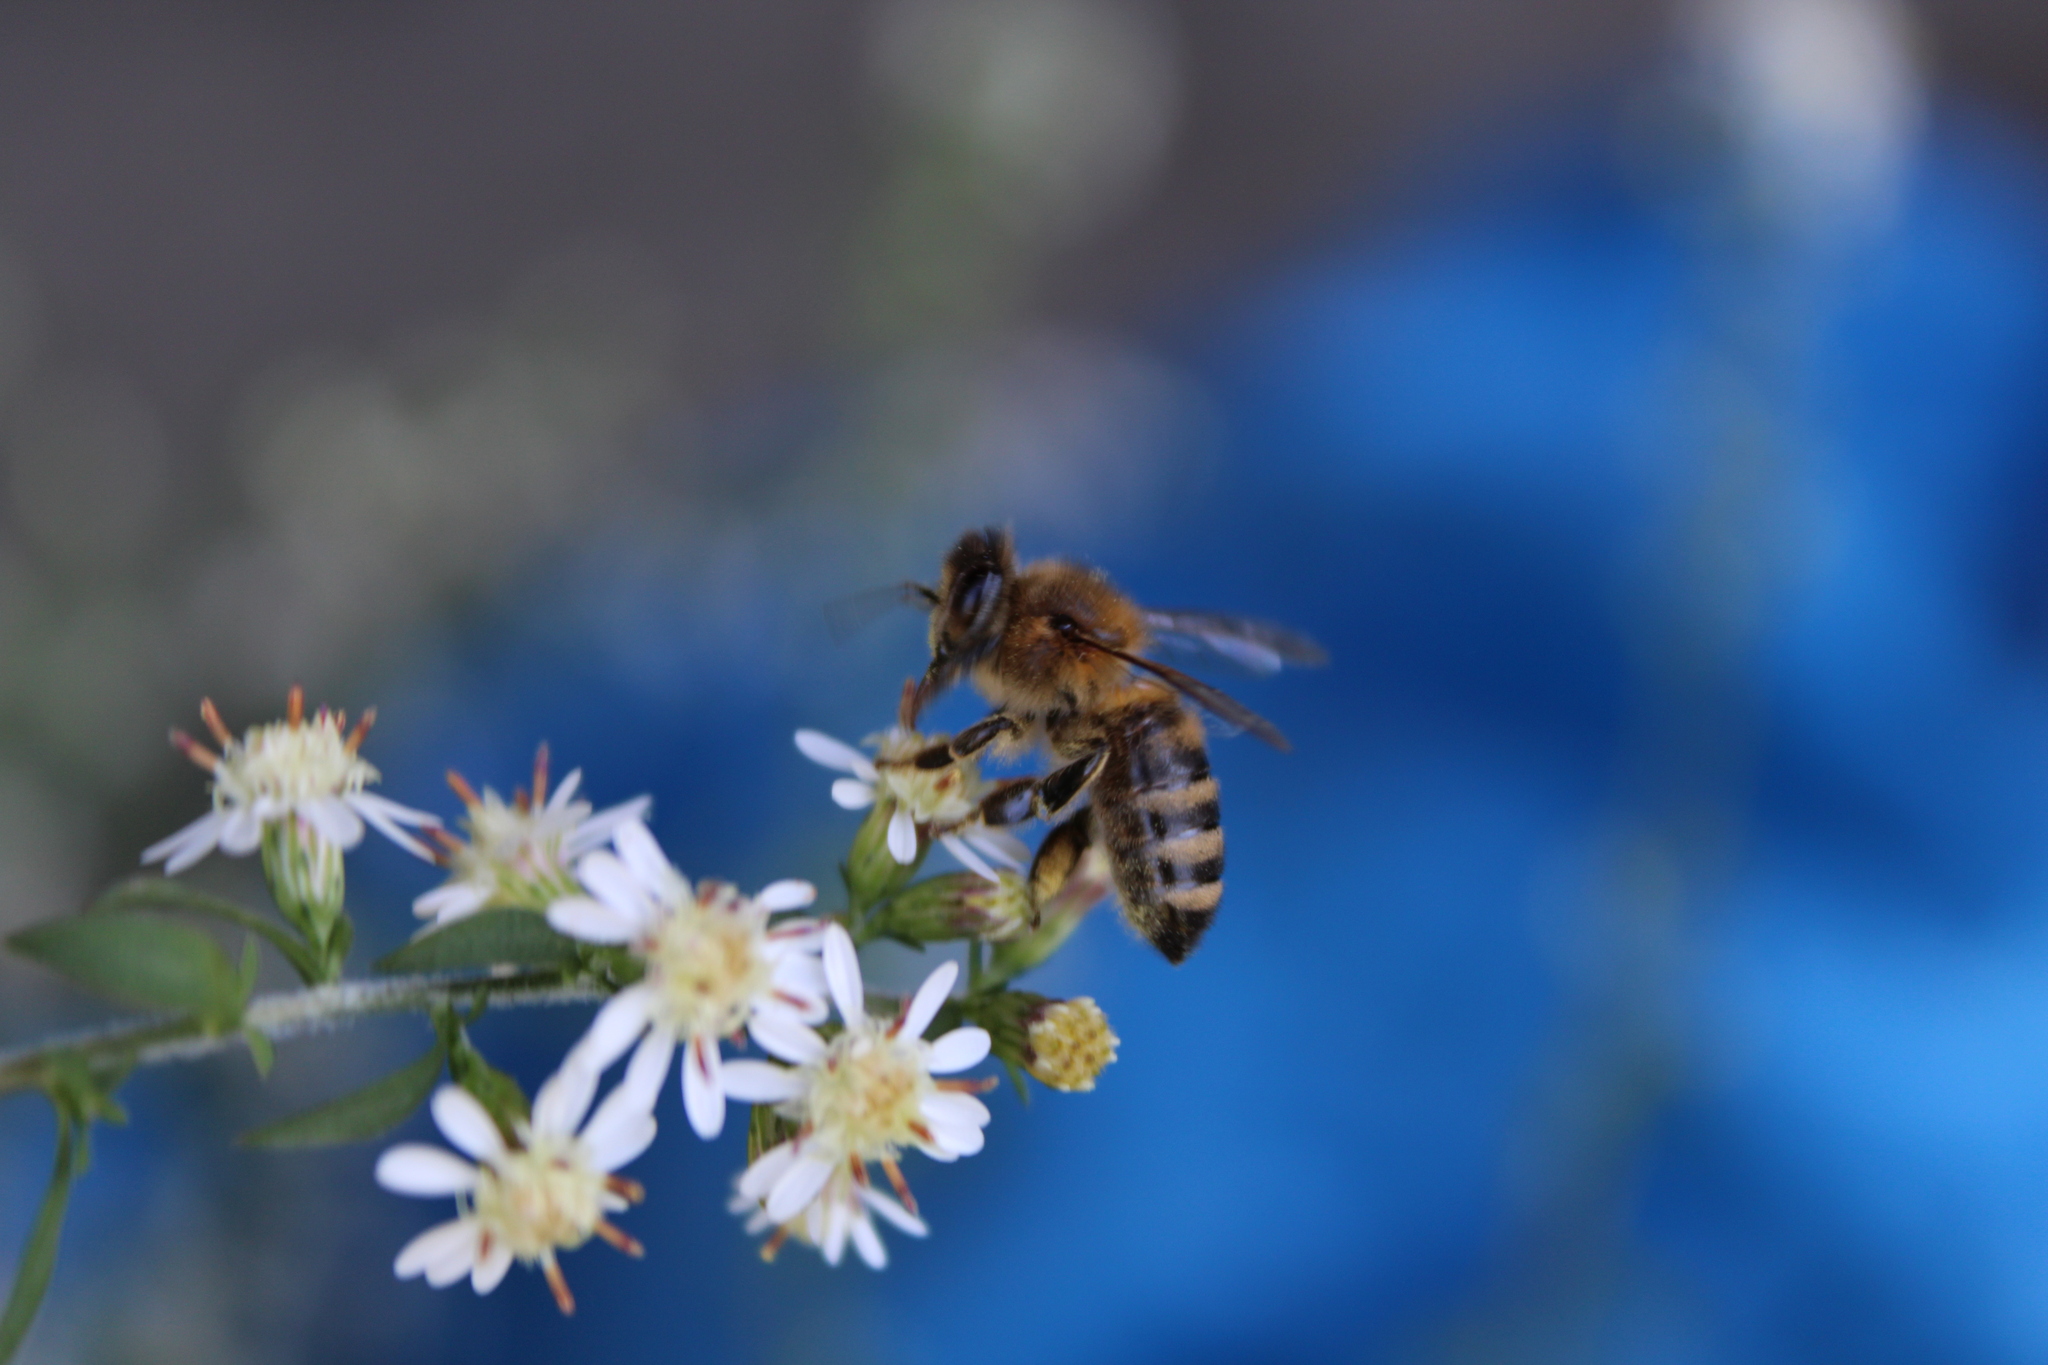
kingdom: Animalia
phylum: Arthropoda
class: Insecta
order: Hymenoptera
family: Apidae
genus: Apis
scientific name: Apis mellifera
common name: Honey bee
